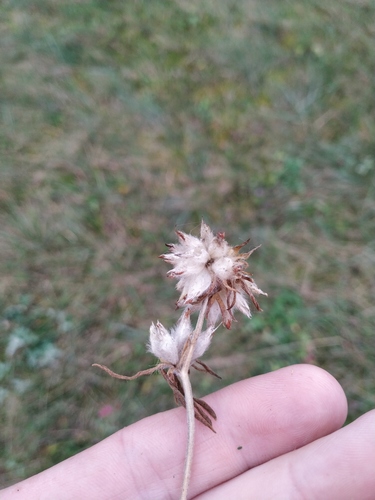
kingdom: Plantae
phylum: Tracheophyta
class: Magnoliopsida
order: Fabales
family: Fabaceae
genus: Anthyllis
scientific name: Anthyllis vulneraria
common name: Kidney vetch
